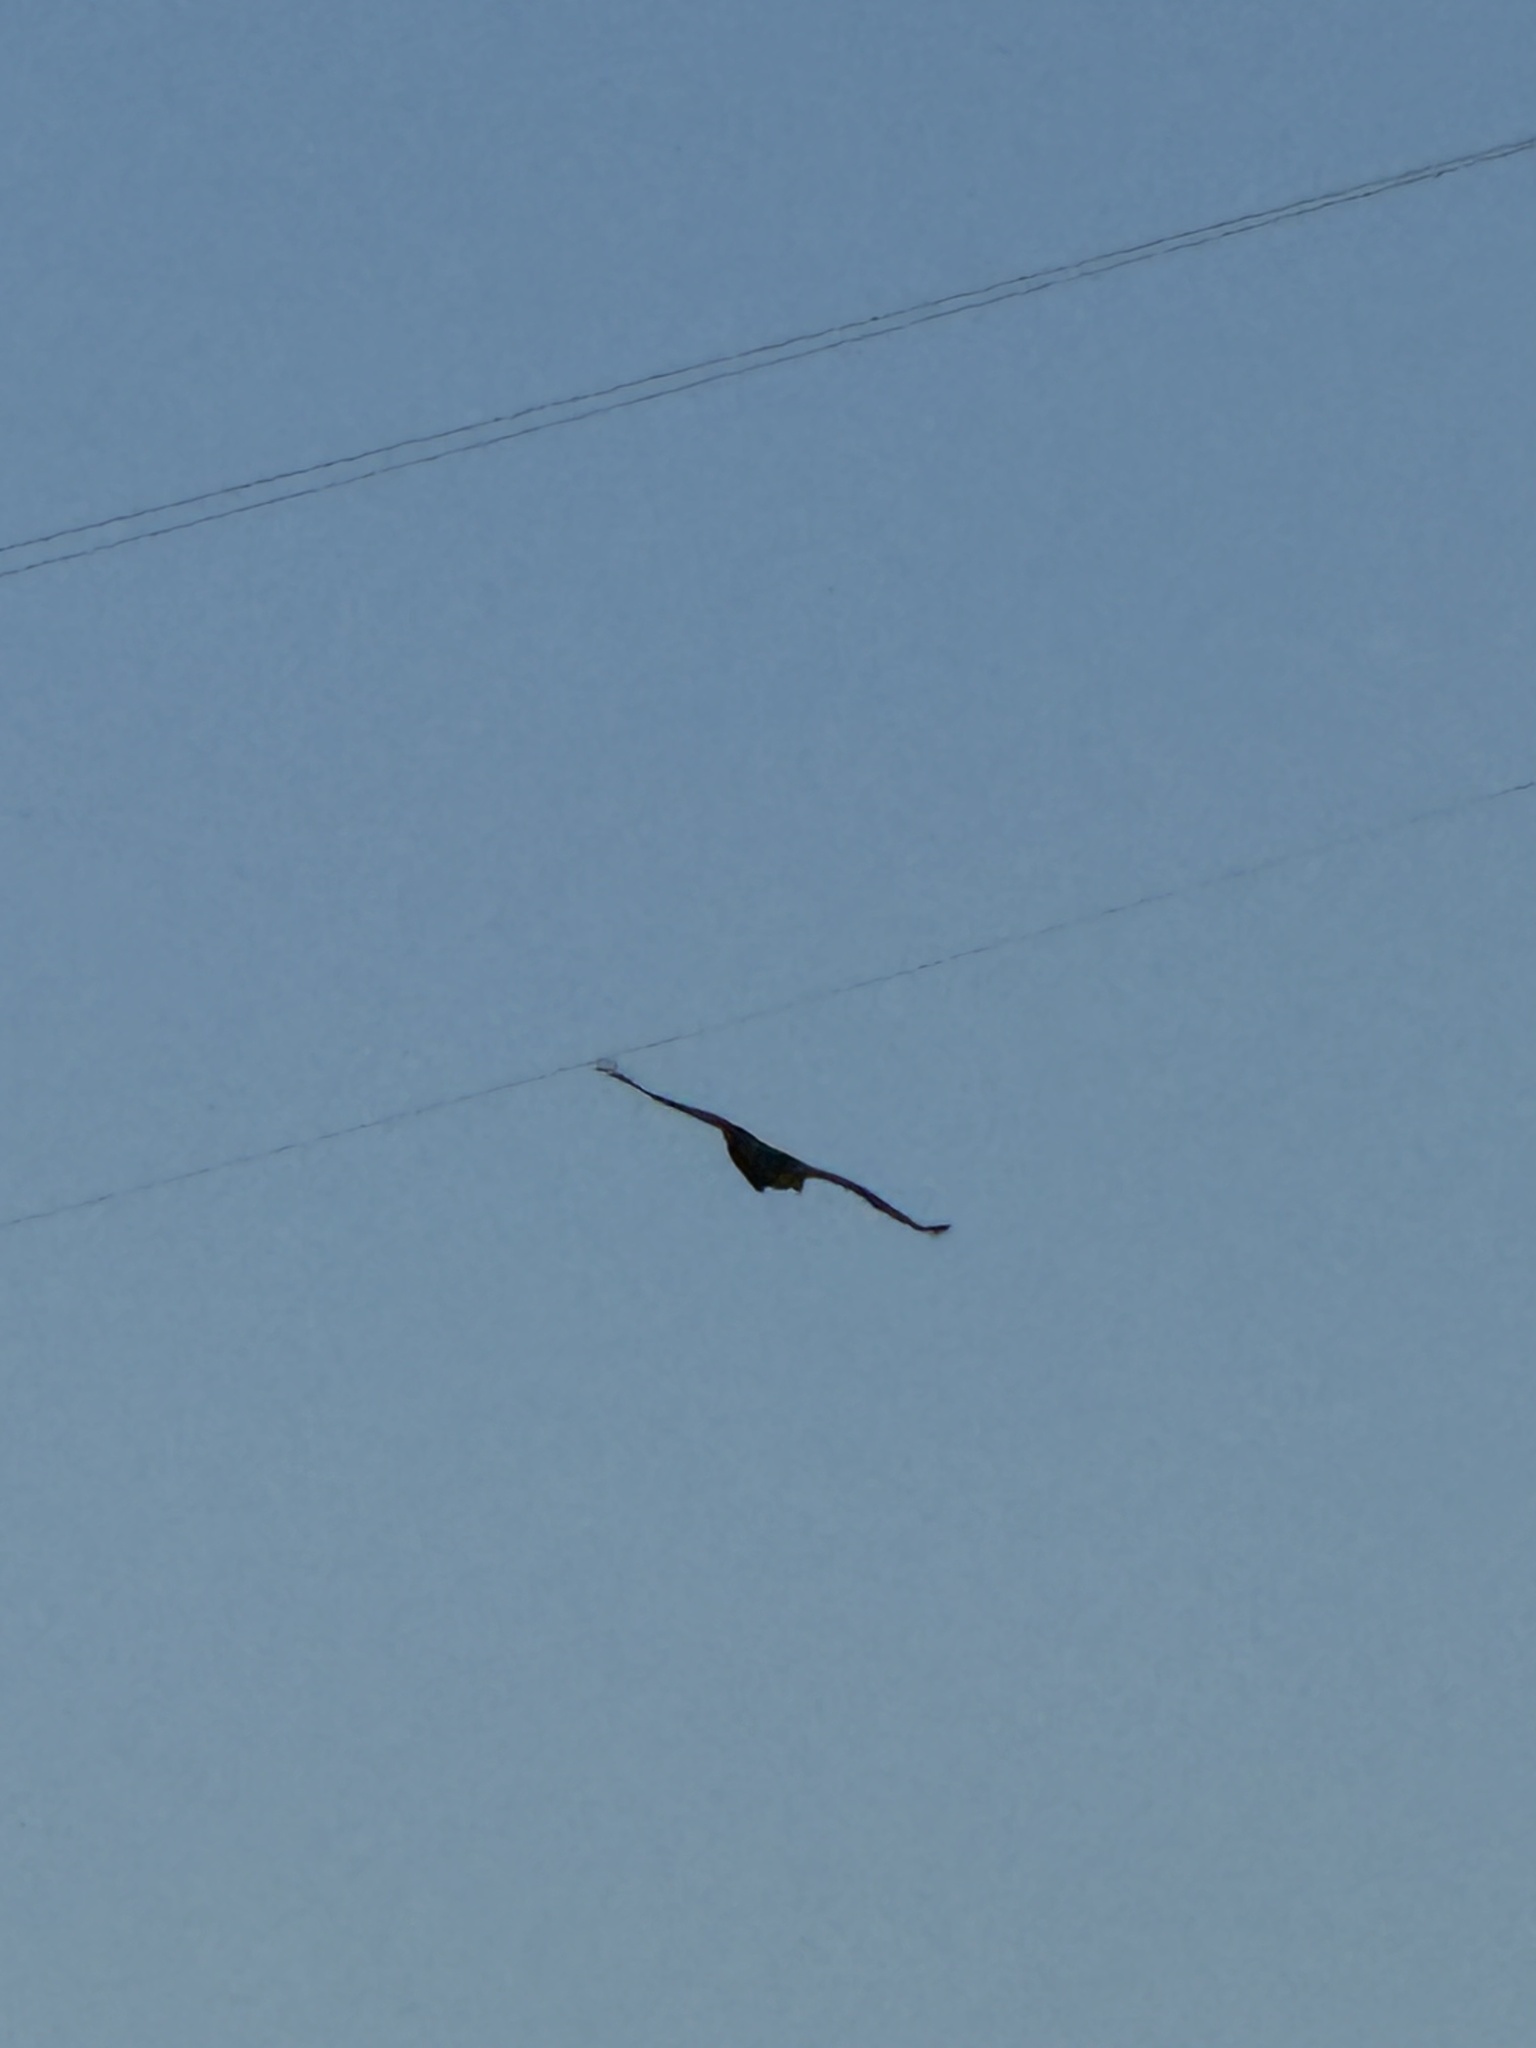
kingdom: Animalia
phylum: Chordata
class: Aves
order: Falconiformes
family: Falconidae
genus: Falco
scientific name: Falco peregrinus
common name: Peregrine falcon
